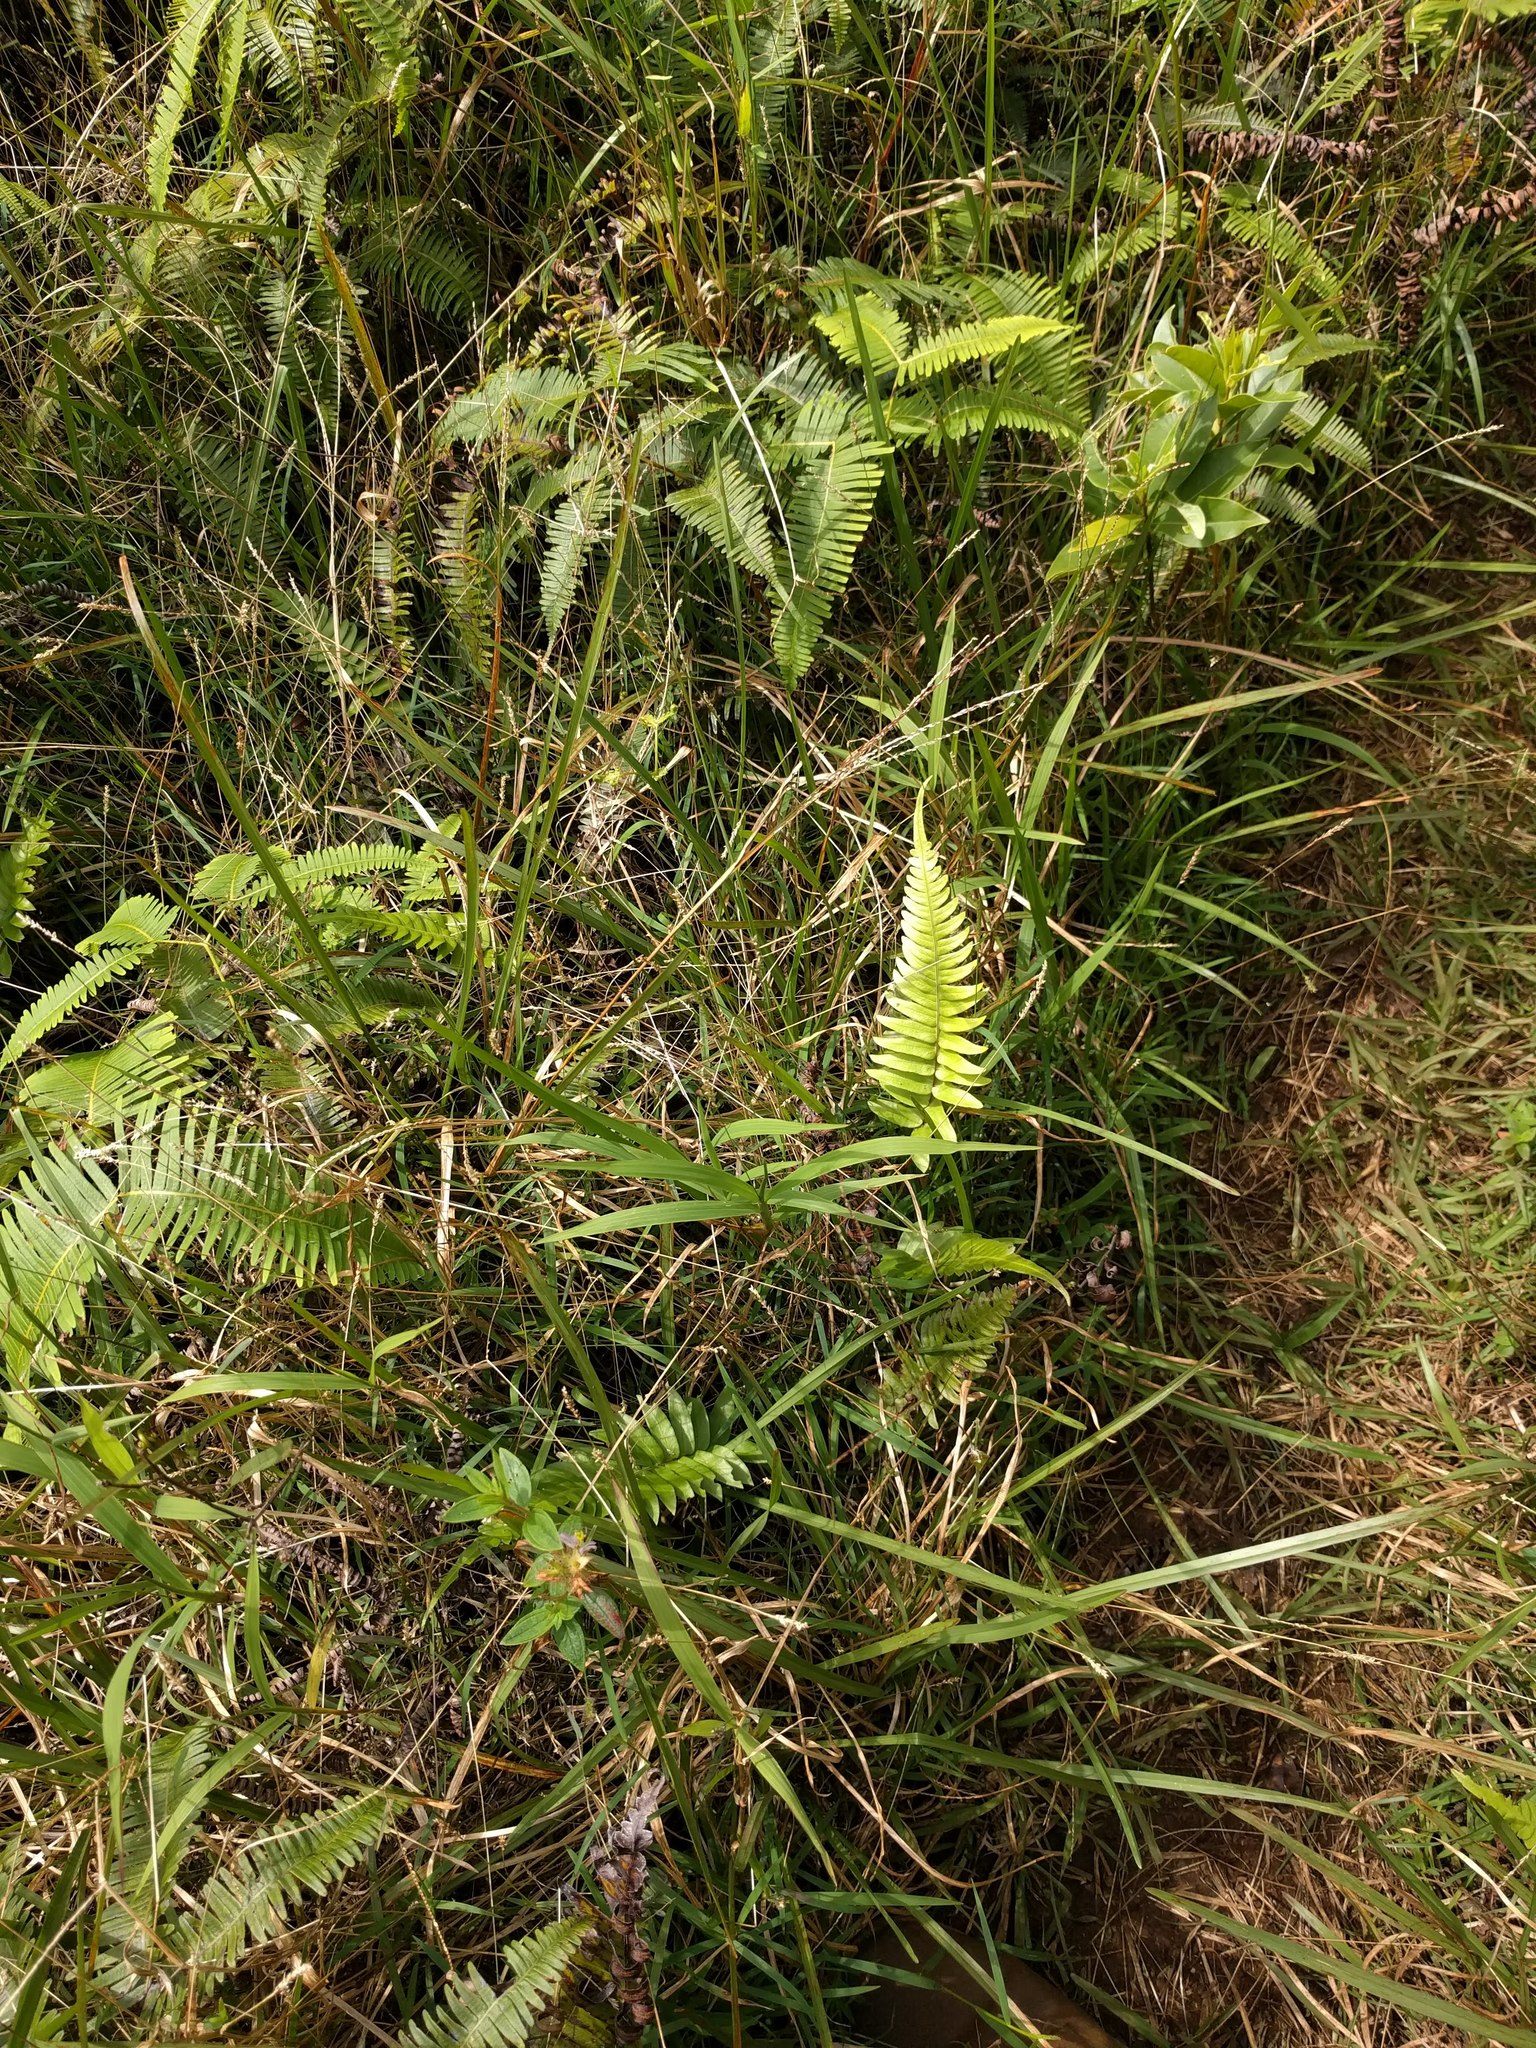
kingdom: Plantae
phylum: Tracheophyta
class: Polypodiopsida
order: Polypodiales
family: Blechnaceae
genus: Blechnum
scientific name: Blechnum appendiculatum
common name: Palm fern
